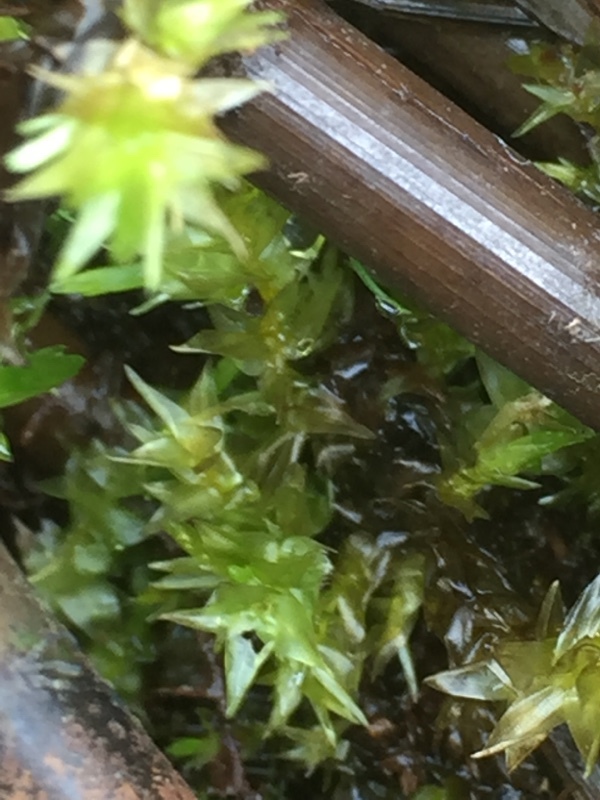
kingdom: Plantae
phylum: Bryophyta
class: Bryopsida
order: Hypnales
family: Calliergonaceae
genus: Calliergon
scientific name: Calliergon cordifolium
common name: Heart-leaved spear moss
